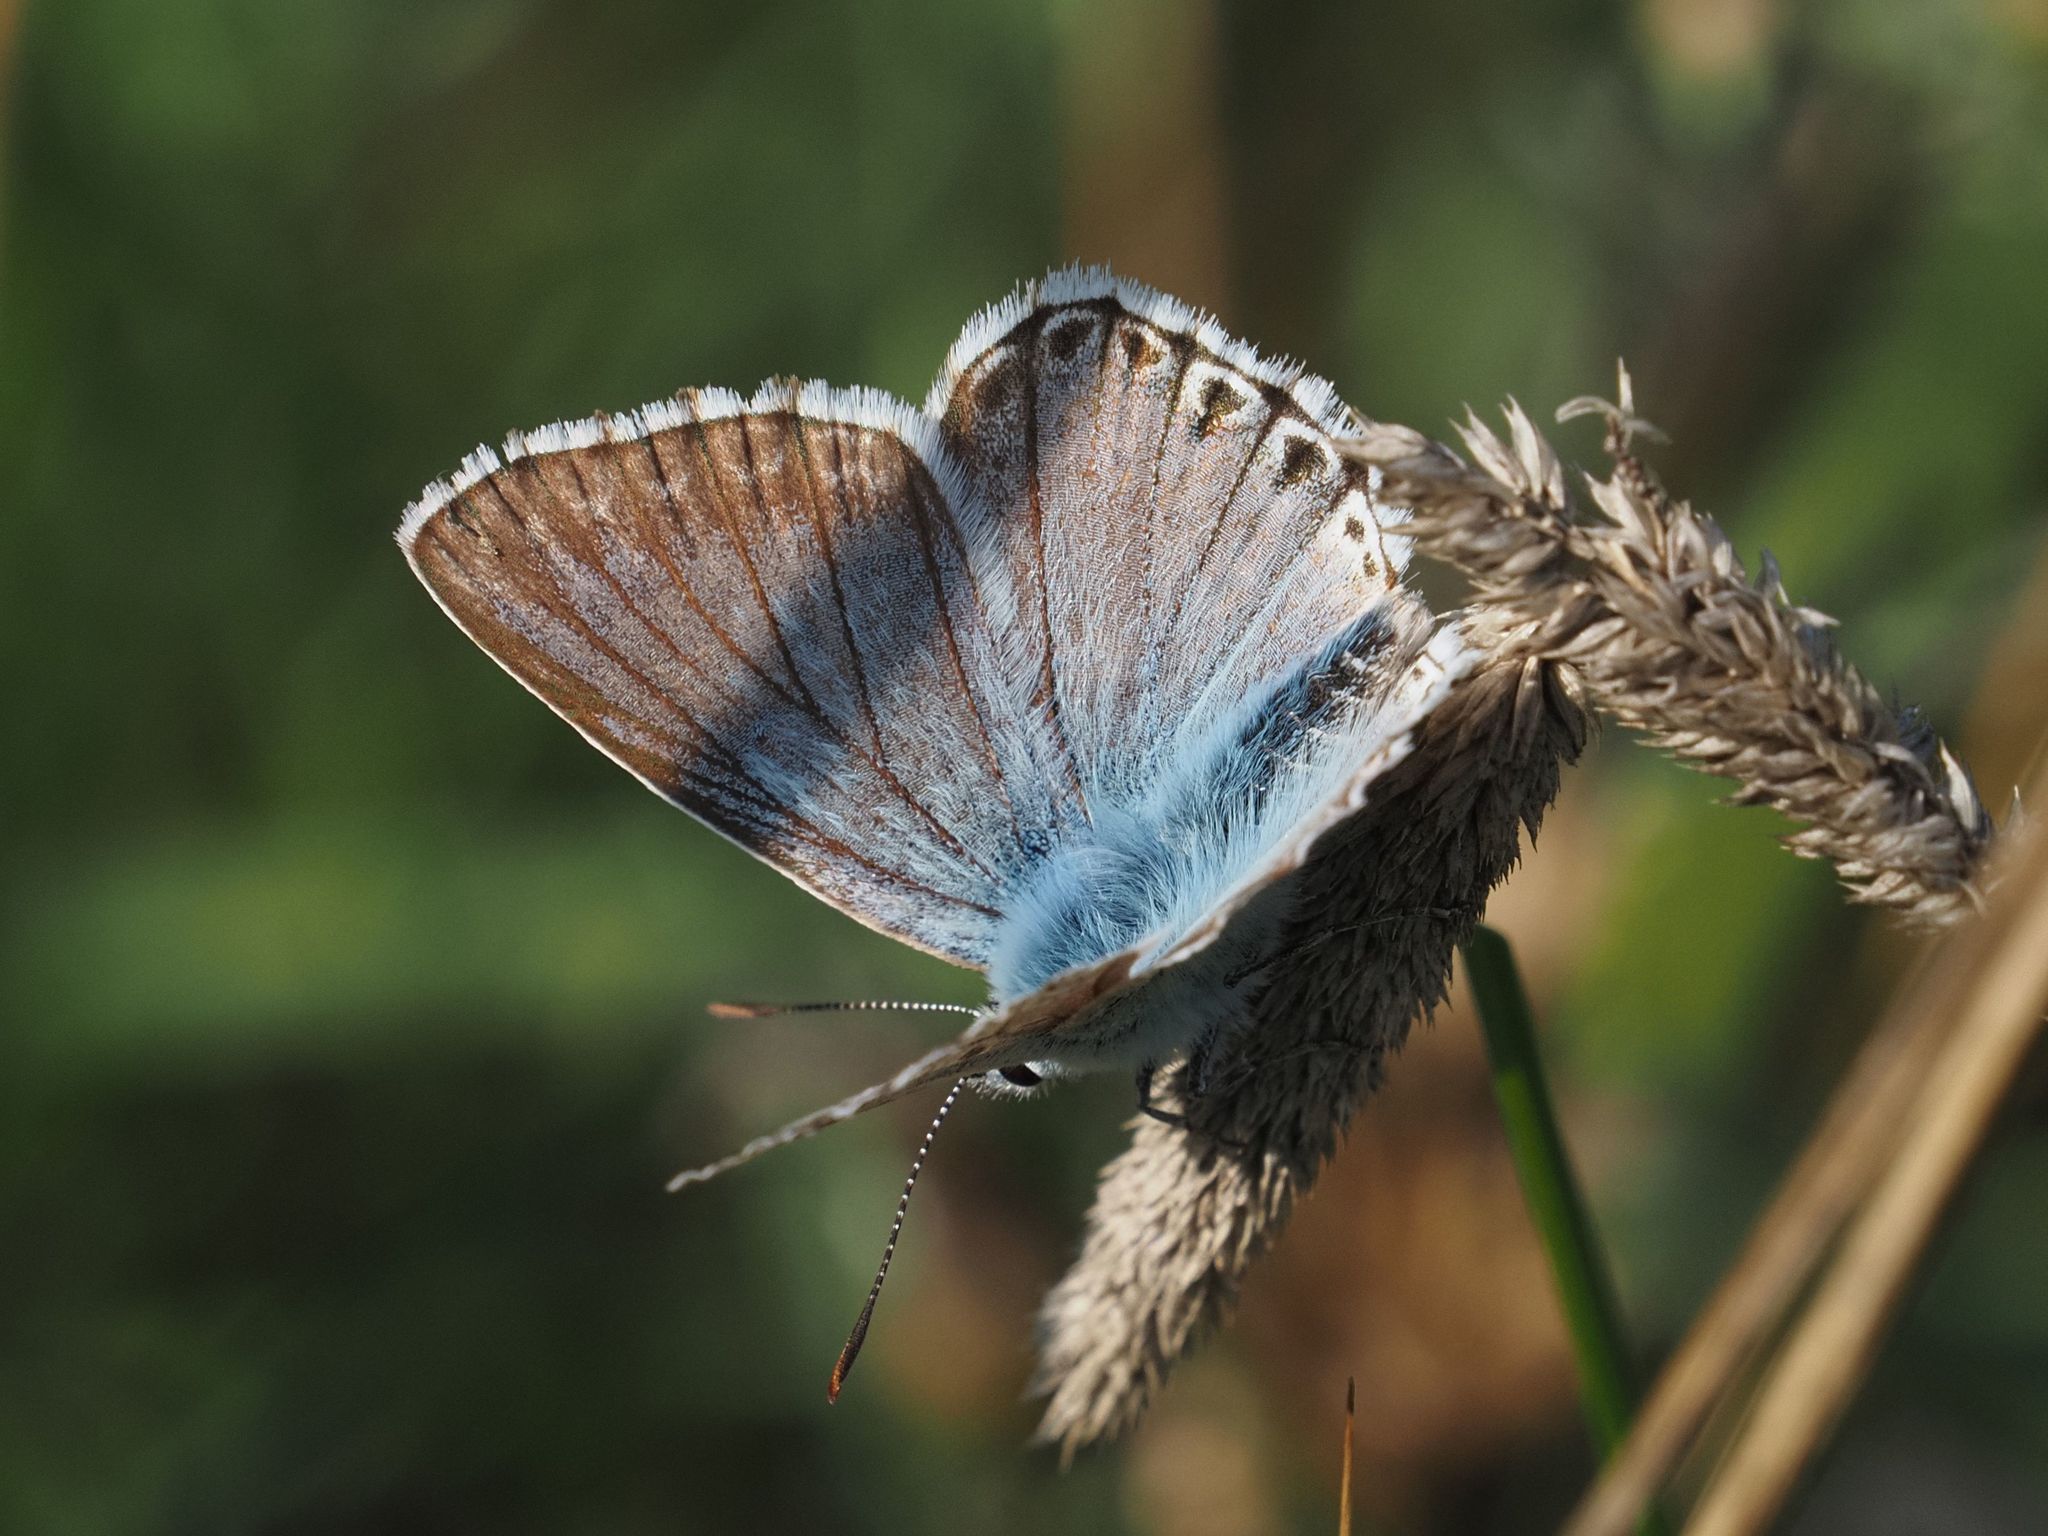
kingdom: Animalia
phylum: Arthropoda
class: Insecta
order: Lepidoptera
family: Lycaenidae
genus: Lysandra
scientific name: Lysandra coridon
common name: Chalkhill blue
